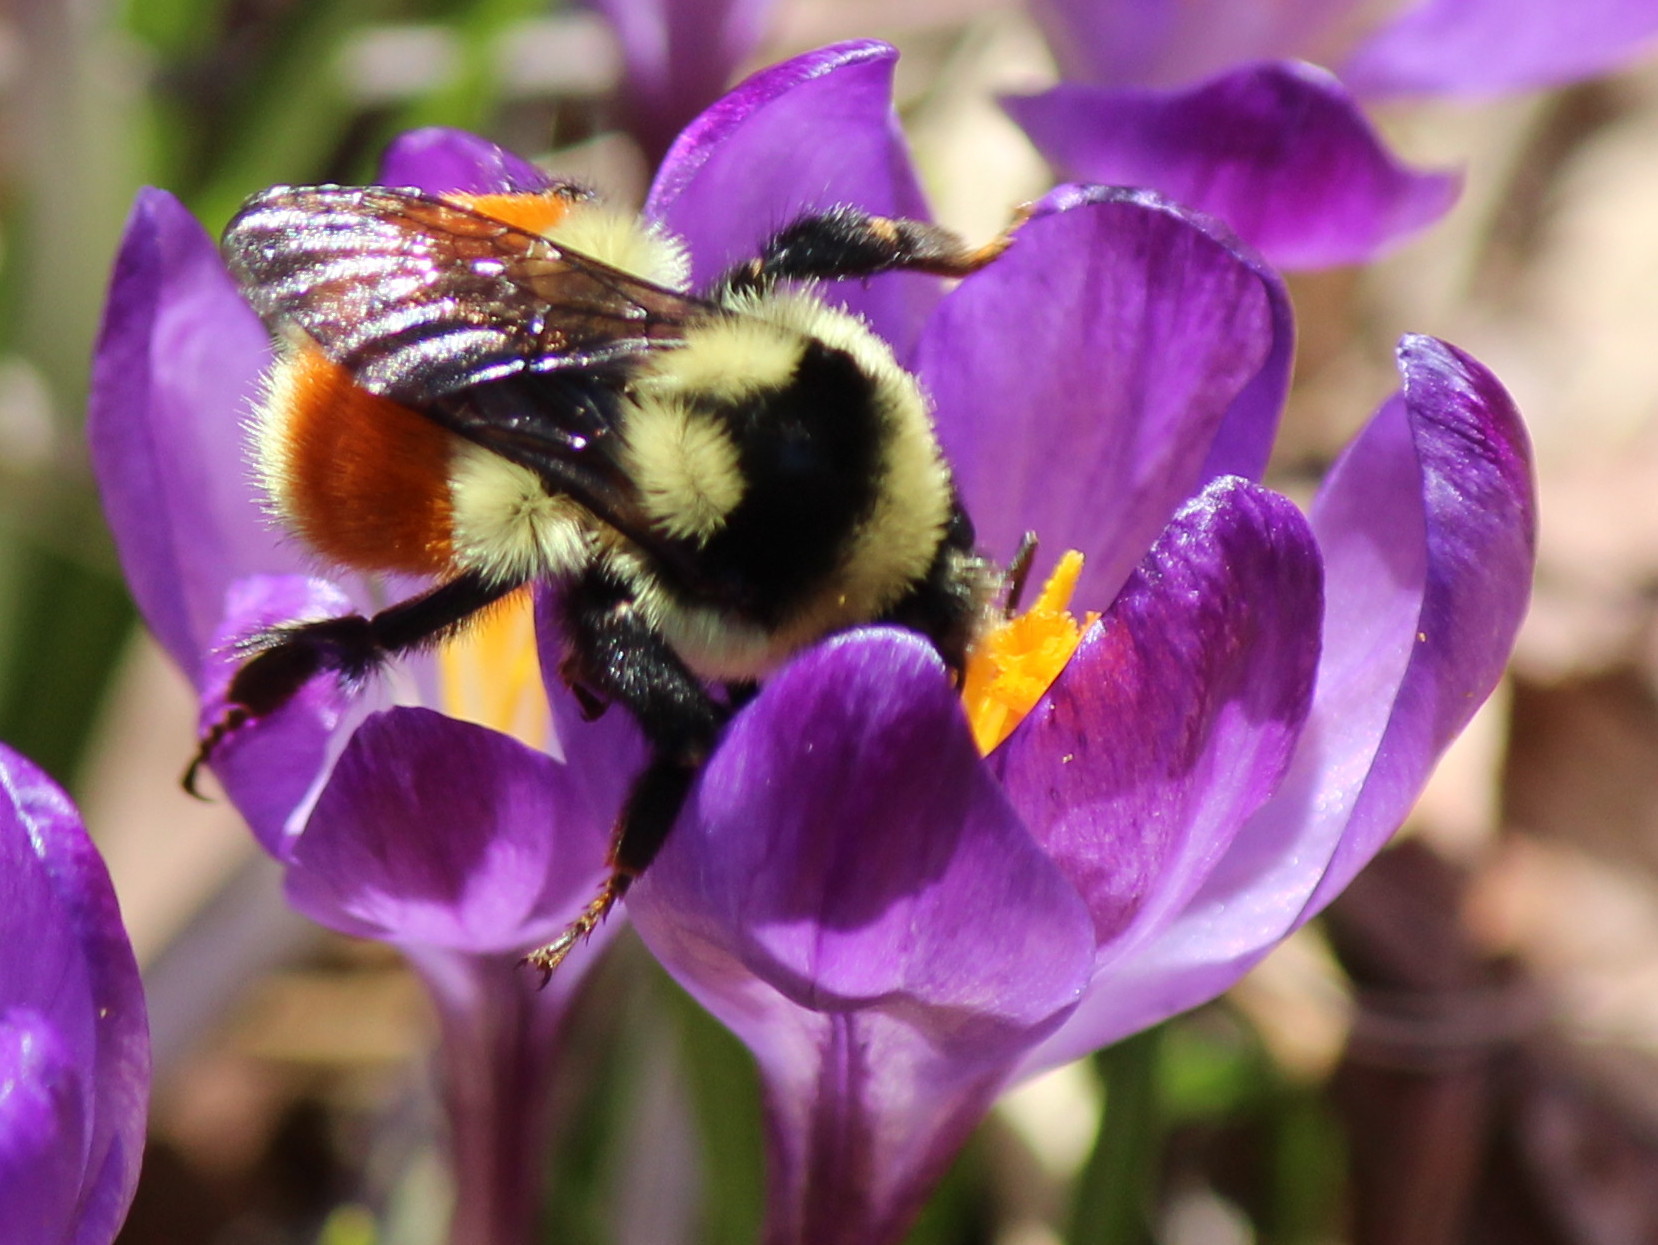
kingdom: Animalia
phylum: Arthropoda
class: Insecta
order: Hymenoptera
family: Apidae
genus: Bombus
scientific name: Bombus ternarius
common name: Tri-colored bumble bee
